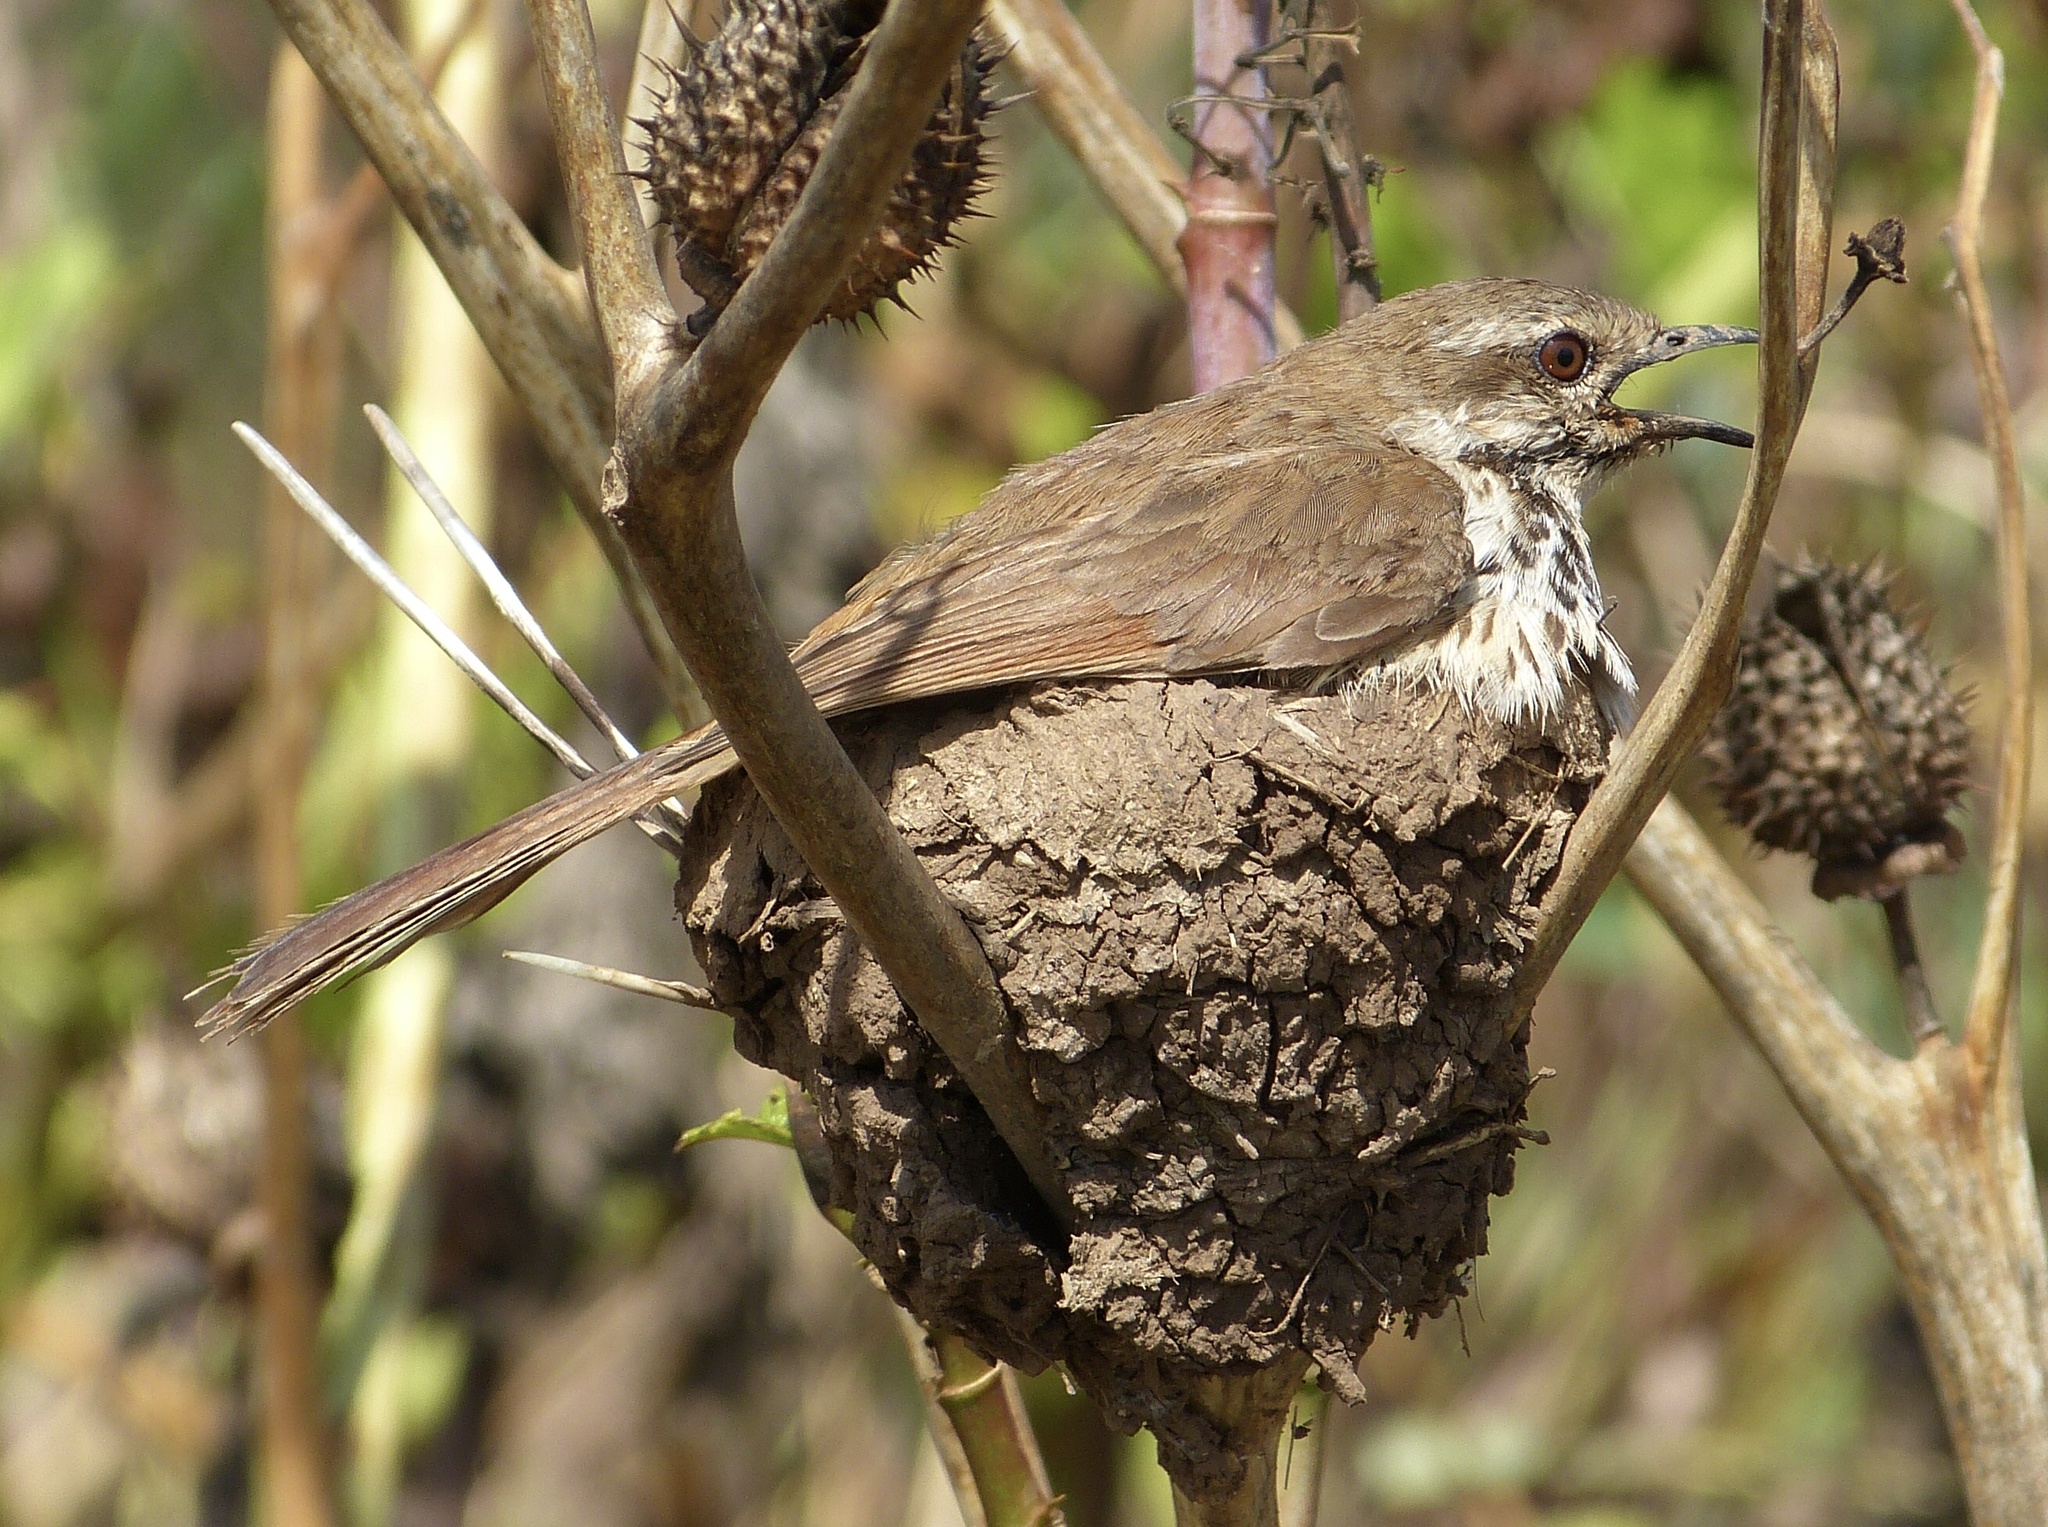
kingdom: Animalia
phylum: Chordata
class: Aves
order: Passeriformes
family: Muscicapidae
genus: Cichladusa
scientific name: Cichladusa guttata
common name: Spotted palm thrush
